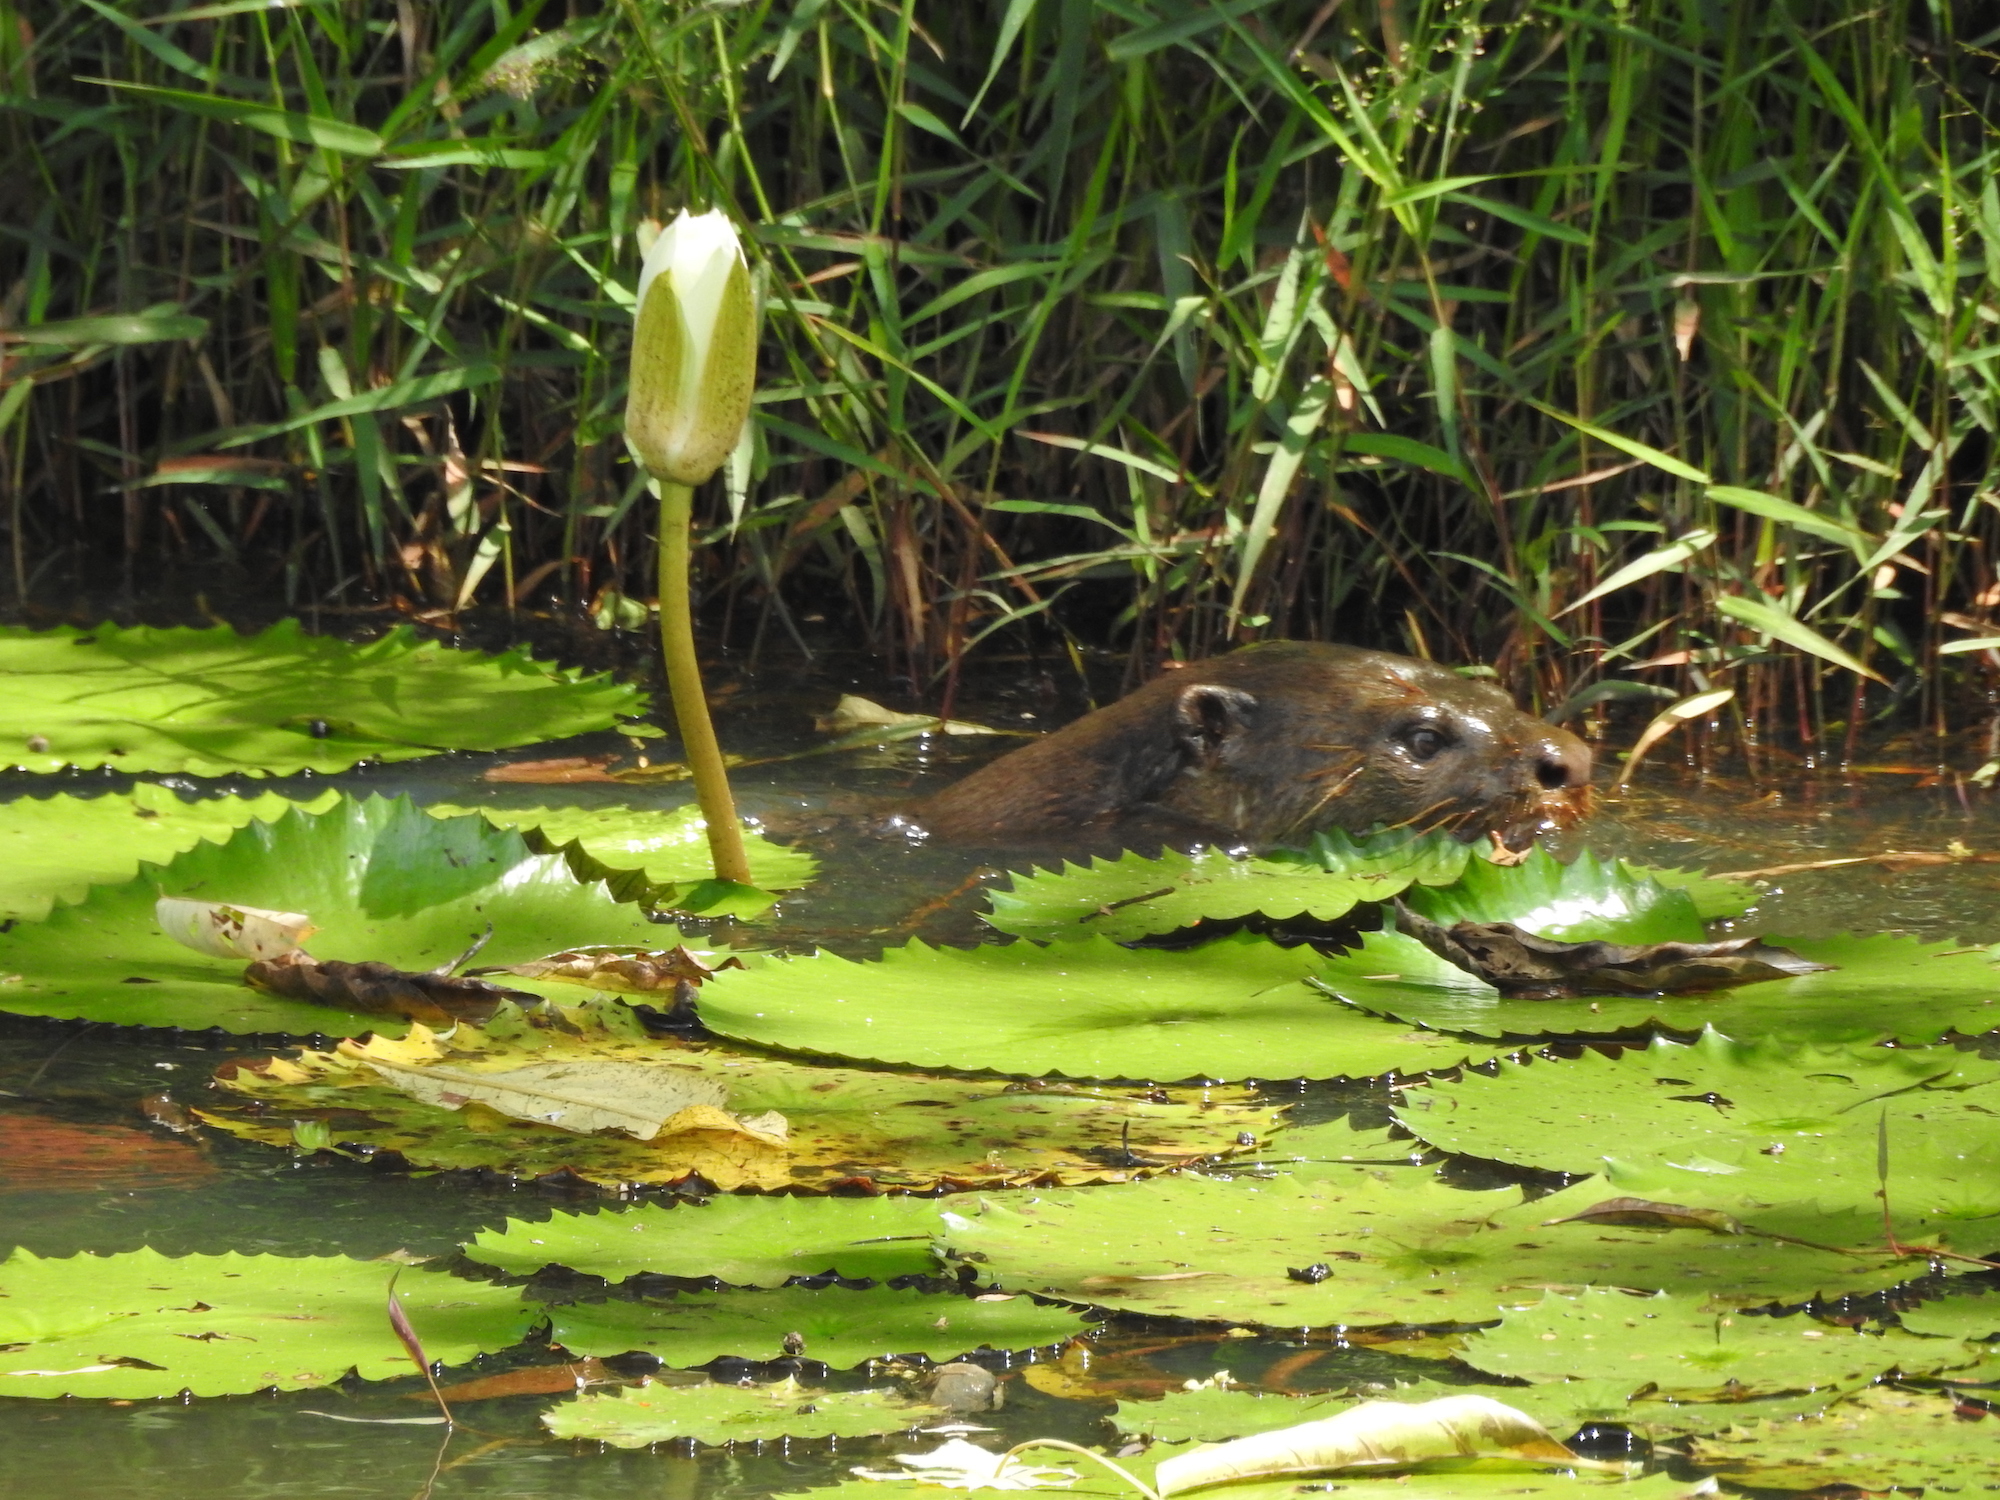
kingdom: Animalia
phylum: Chordata
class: Mammalia
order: Carnivora
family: Mustelidae
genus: Lutrogale
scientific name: Lutrogale perspicillata
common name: Smooth-coated otter
